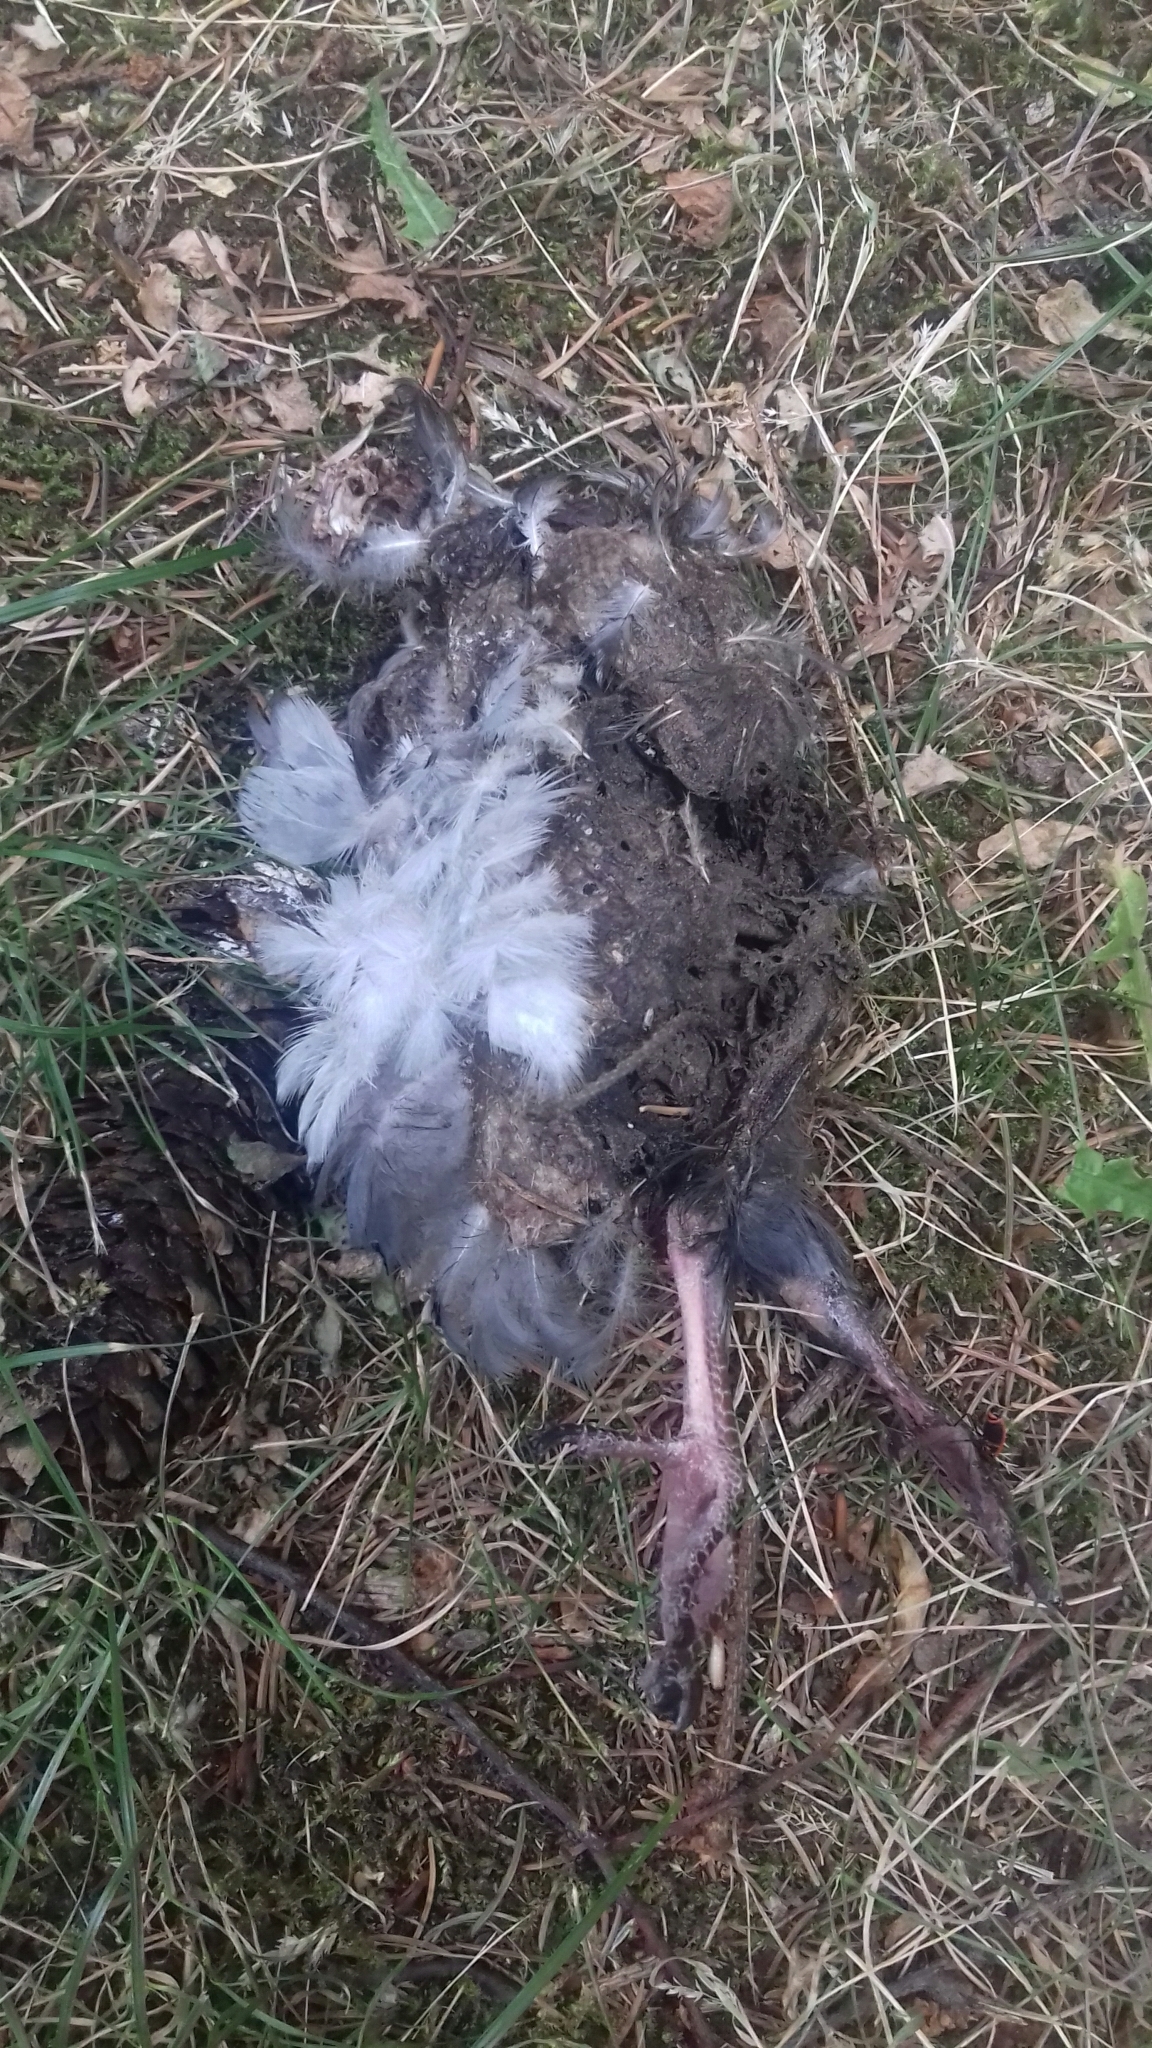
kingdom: Animalia
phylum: Chordata
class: Aves
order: Columbiformes
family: Columbidae
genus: Columba
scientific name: Columba livia
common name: Rock pigeon
